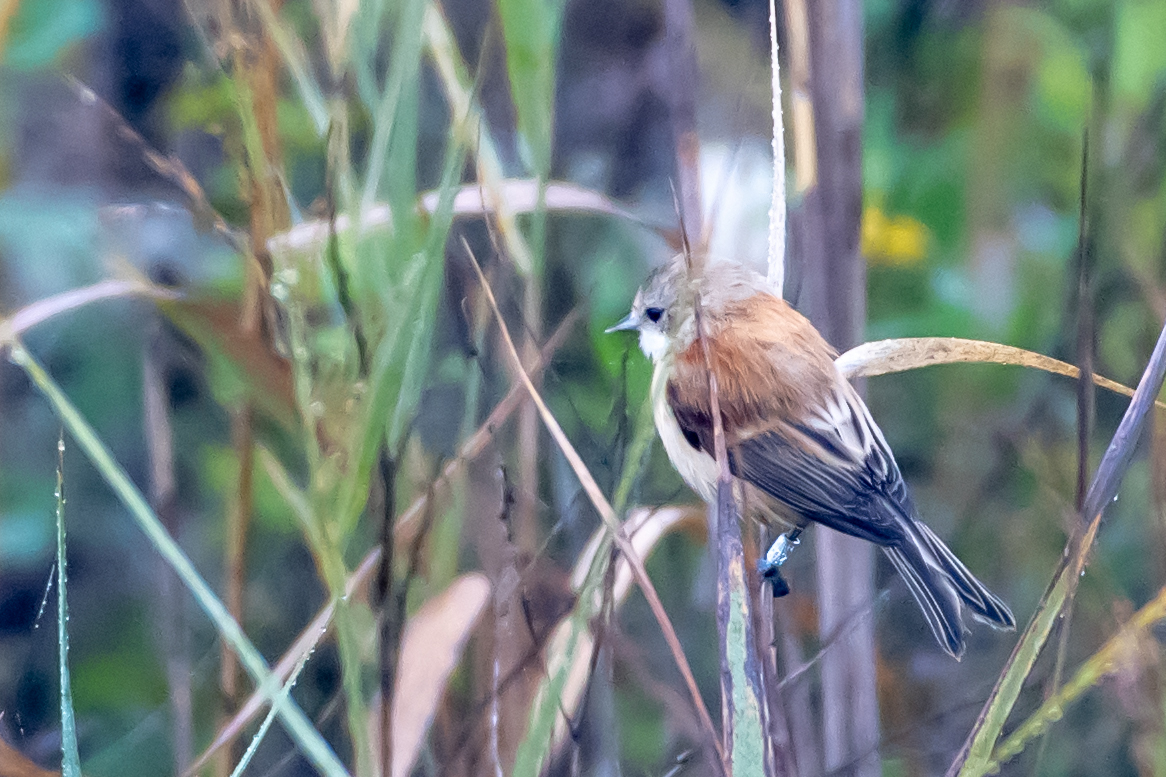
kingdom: Animalia
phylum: Chordata
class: Aves
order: Passeriformes
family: Remizidae
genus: Remiz
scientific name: Remiz pendulinus
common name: Eurasian penduline tit
